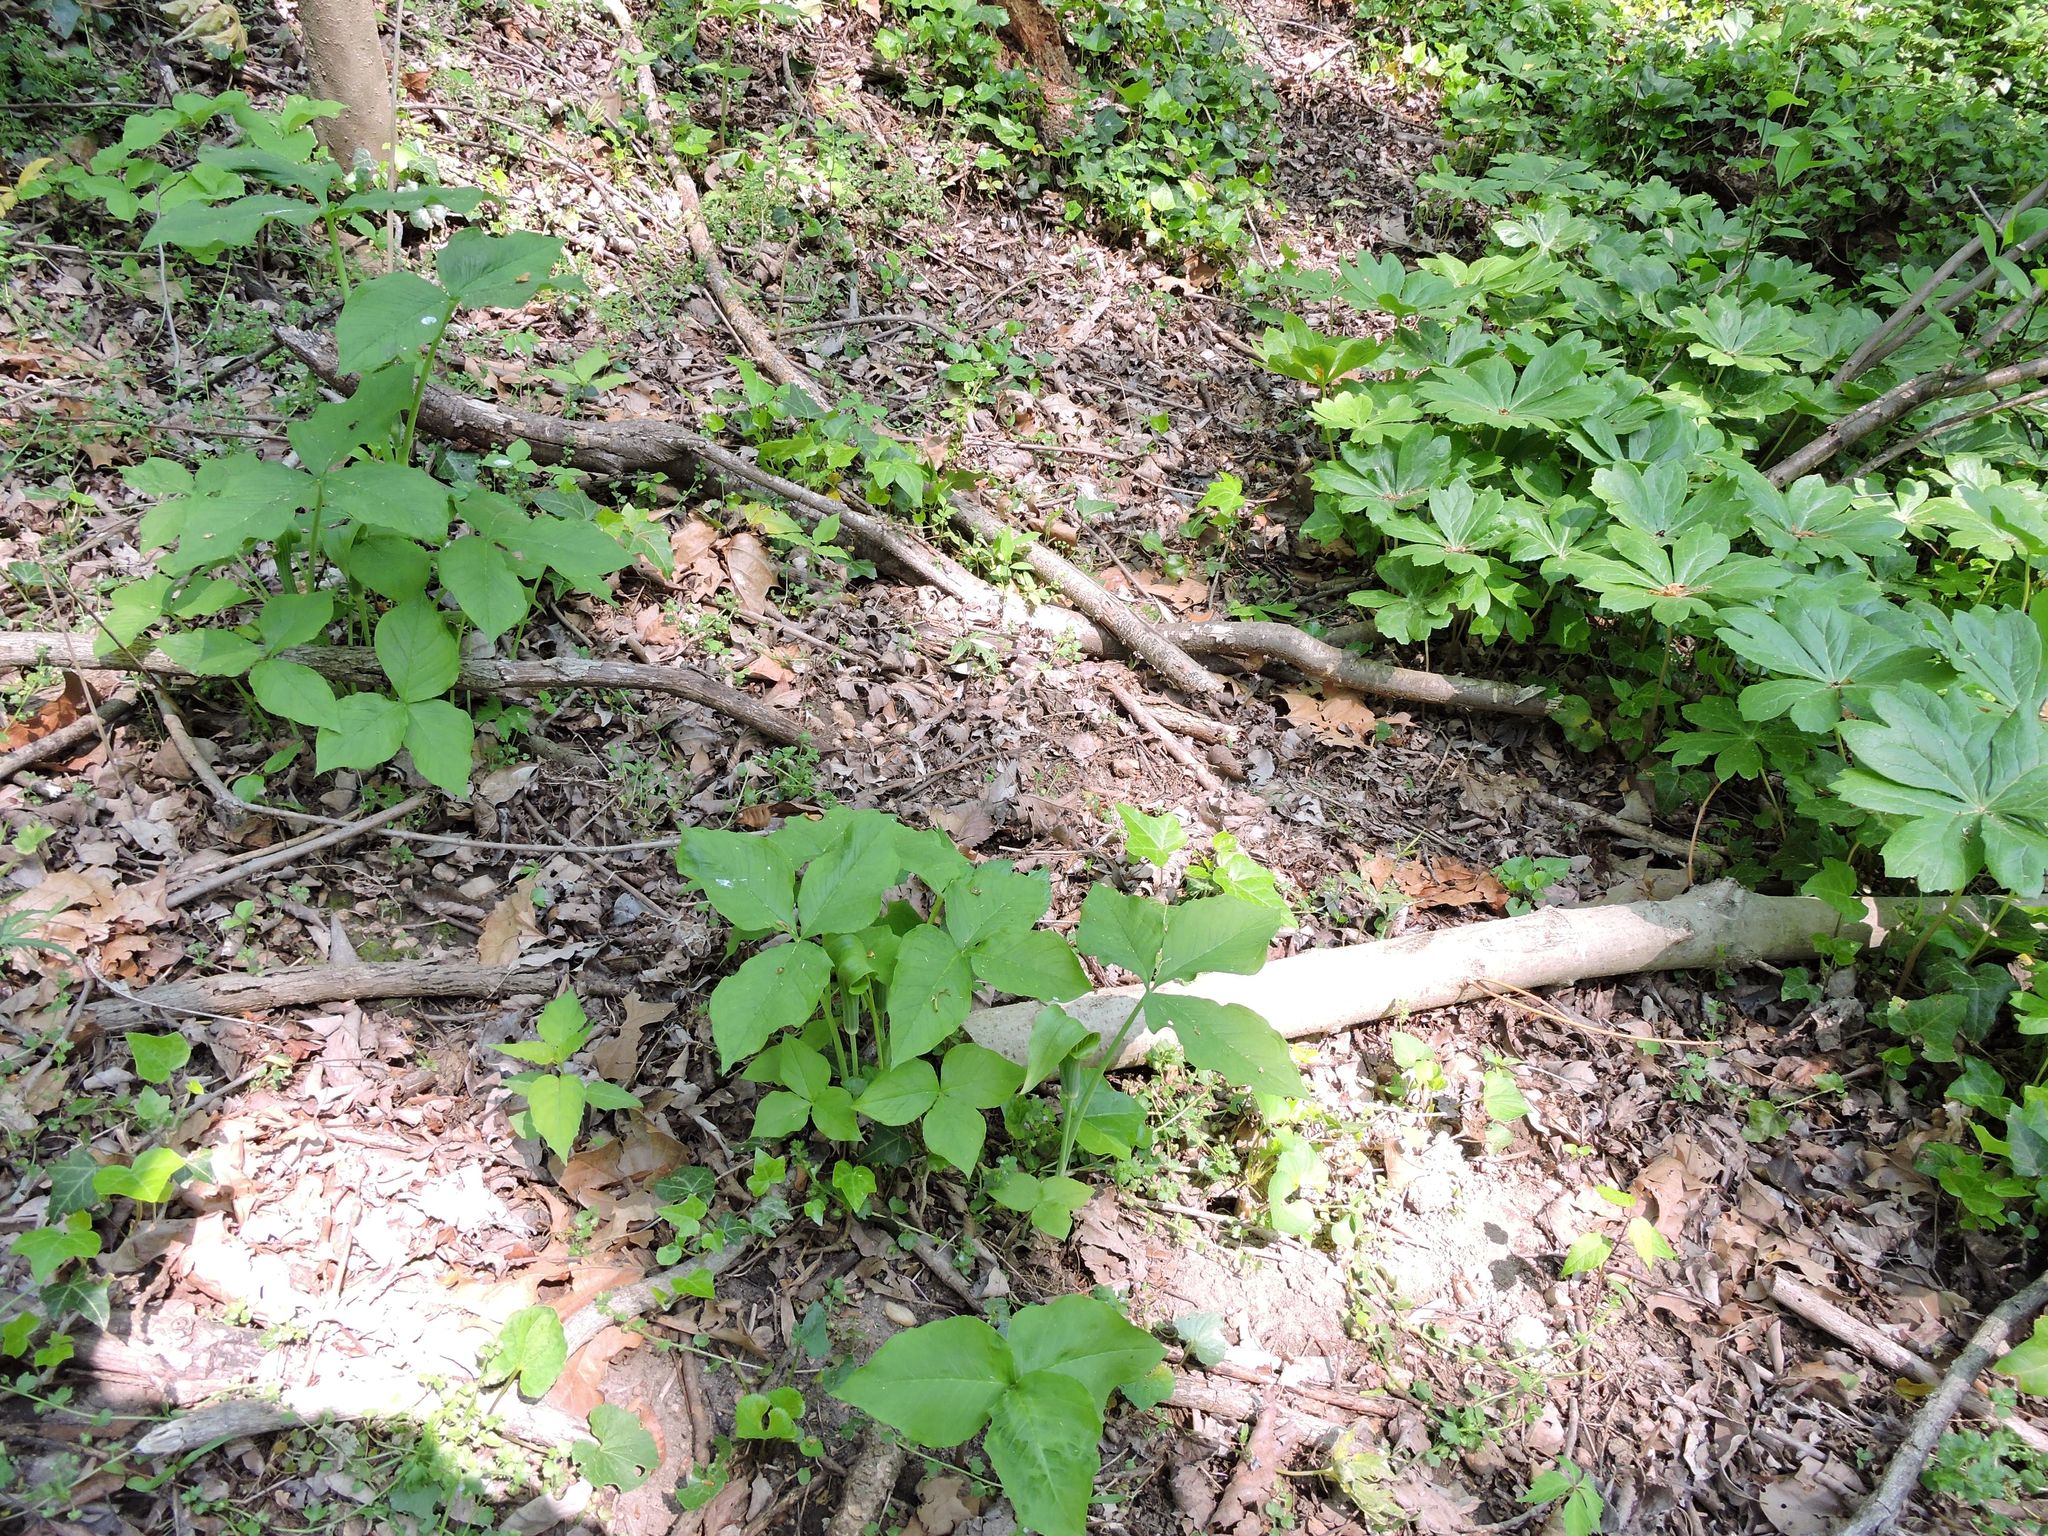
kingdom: Plantae
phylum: Tracheophyta
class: Liliopsida
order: Alismatales
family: Araceae
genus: Arisaema
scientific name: Arisaema triphyllum
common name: Jack-in-the-pulpit
